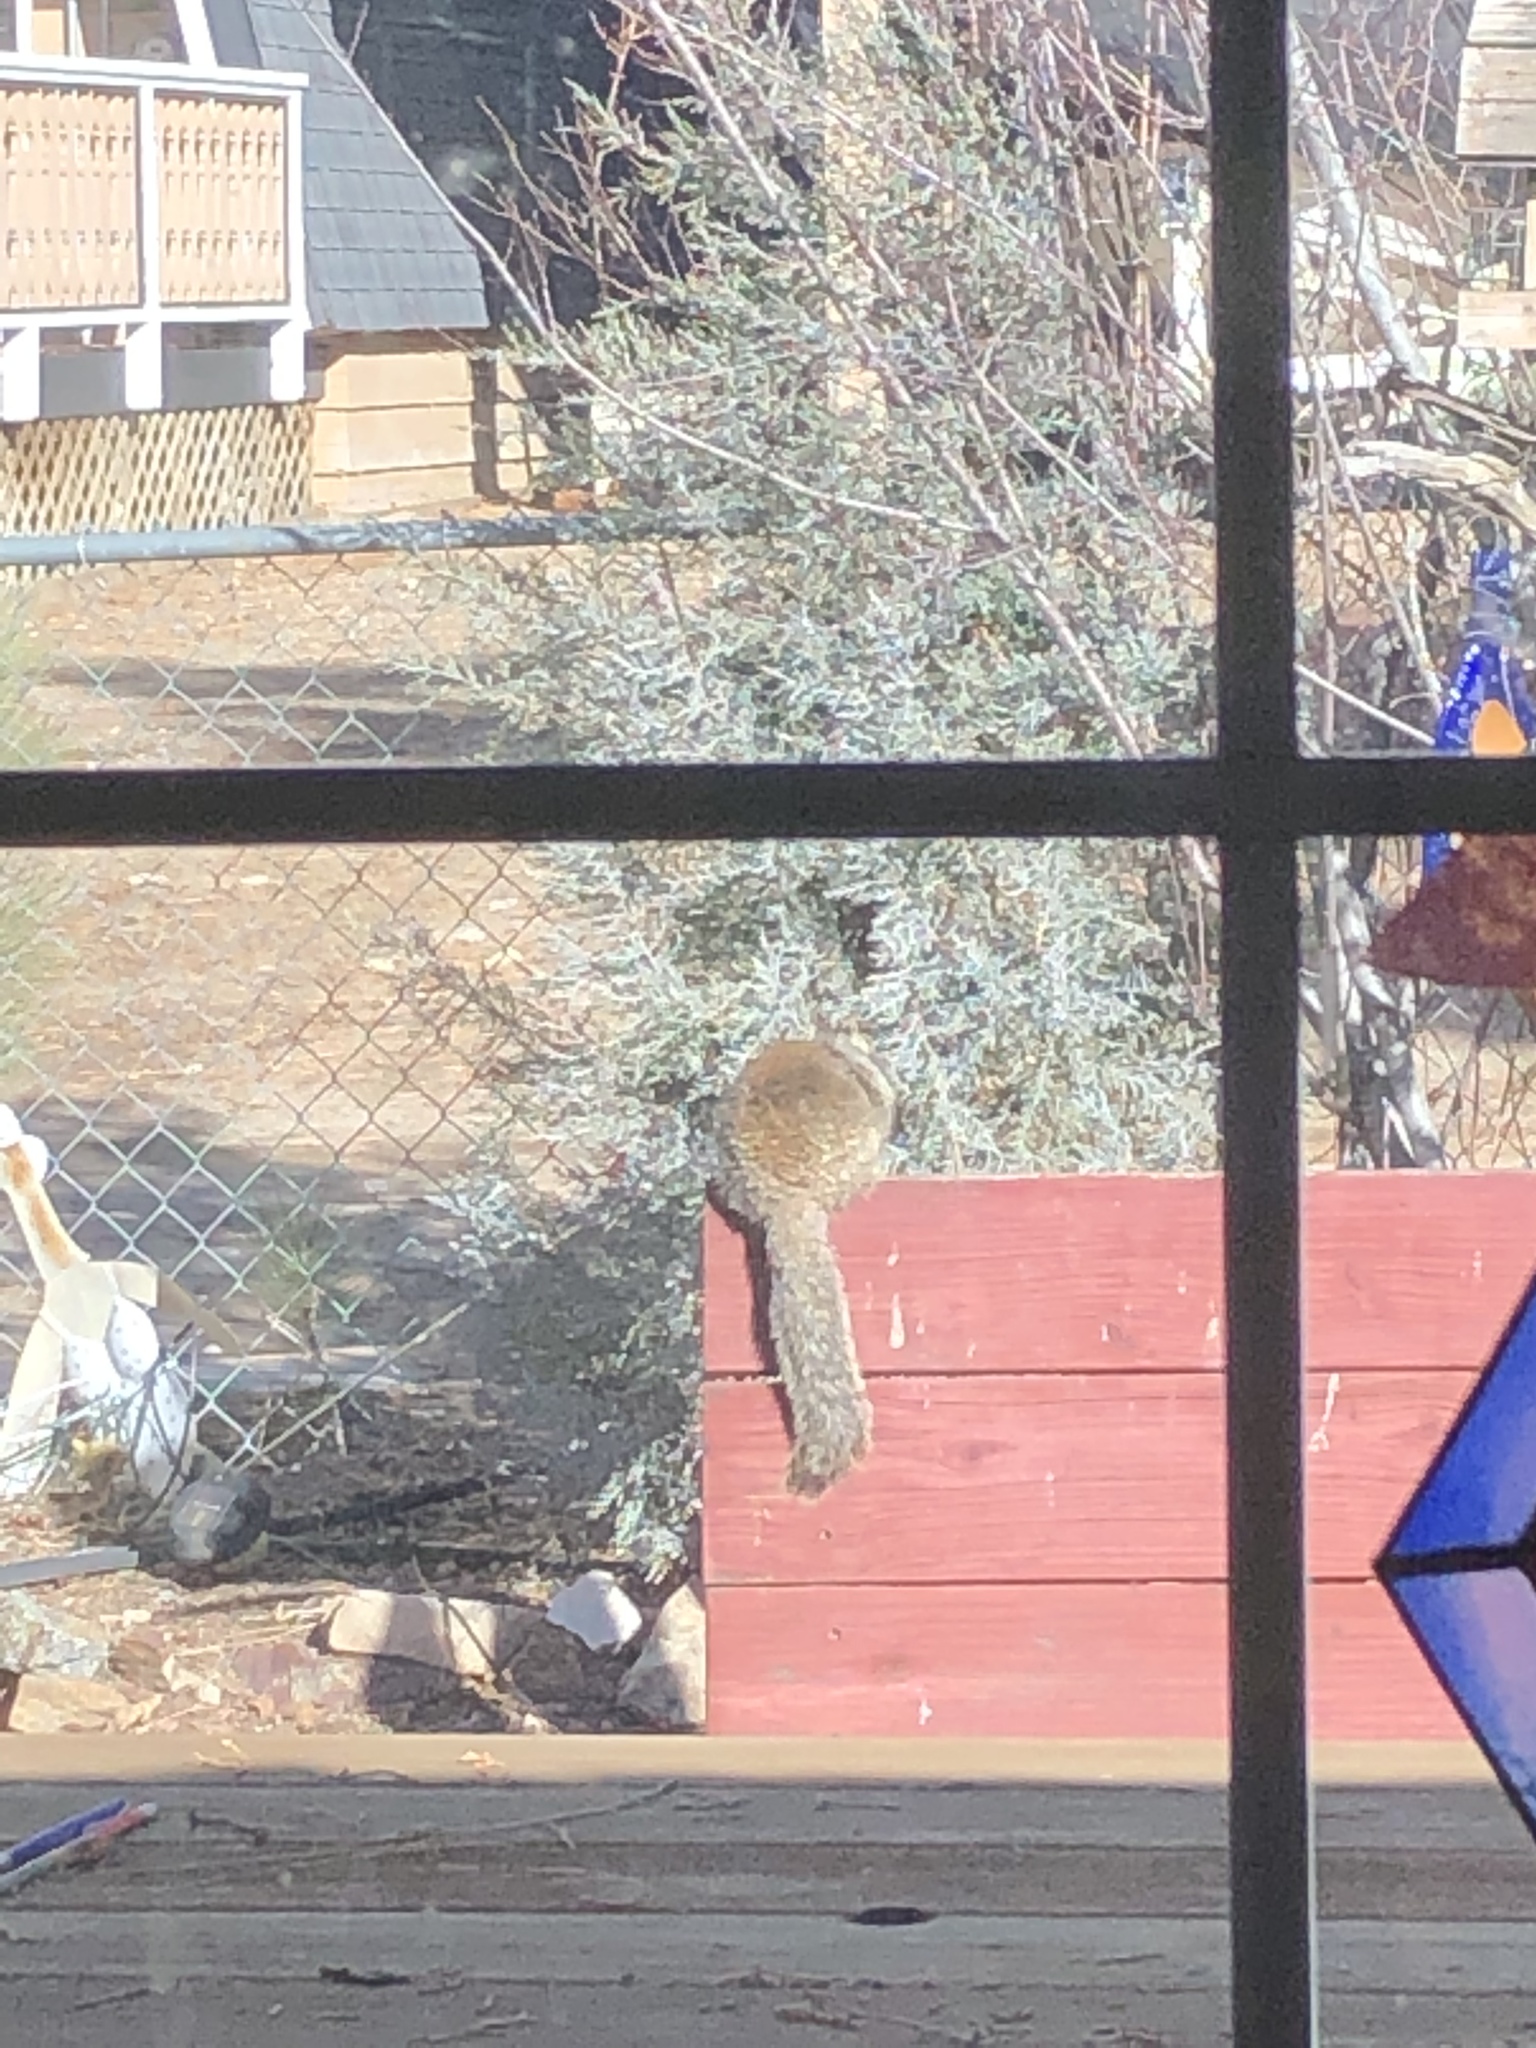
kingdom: Animalia
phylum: Chordata
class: Mammalia
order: Rodentia
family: Sciuridae
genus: Otospermophilus
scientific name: Otospermophilus beecheyi
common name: California ground squirrel
